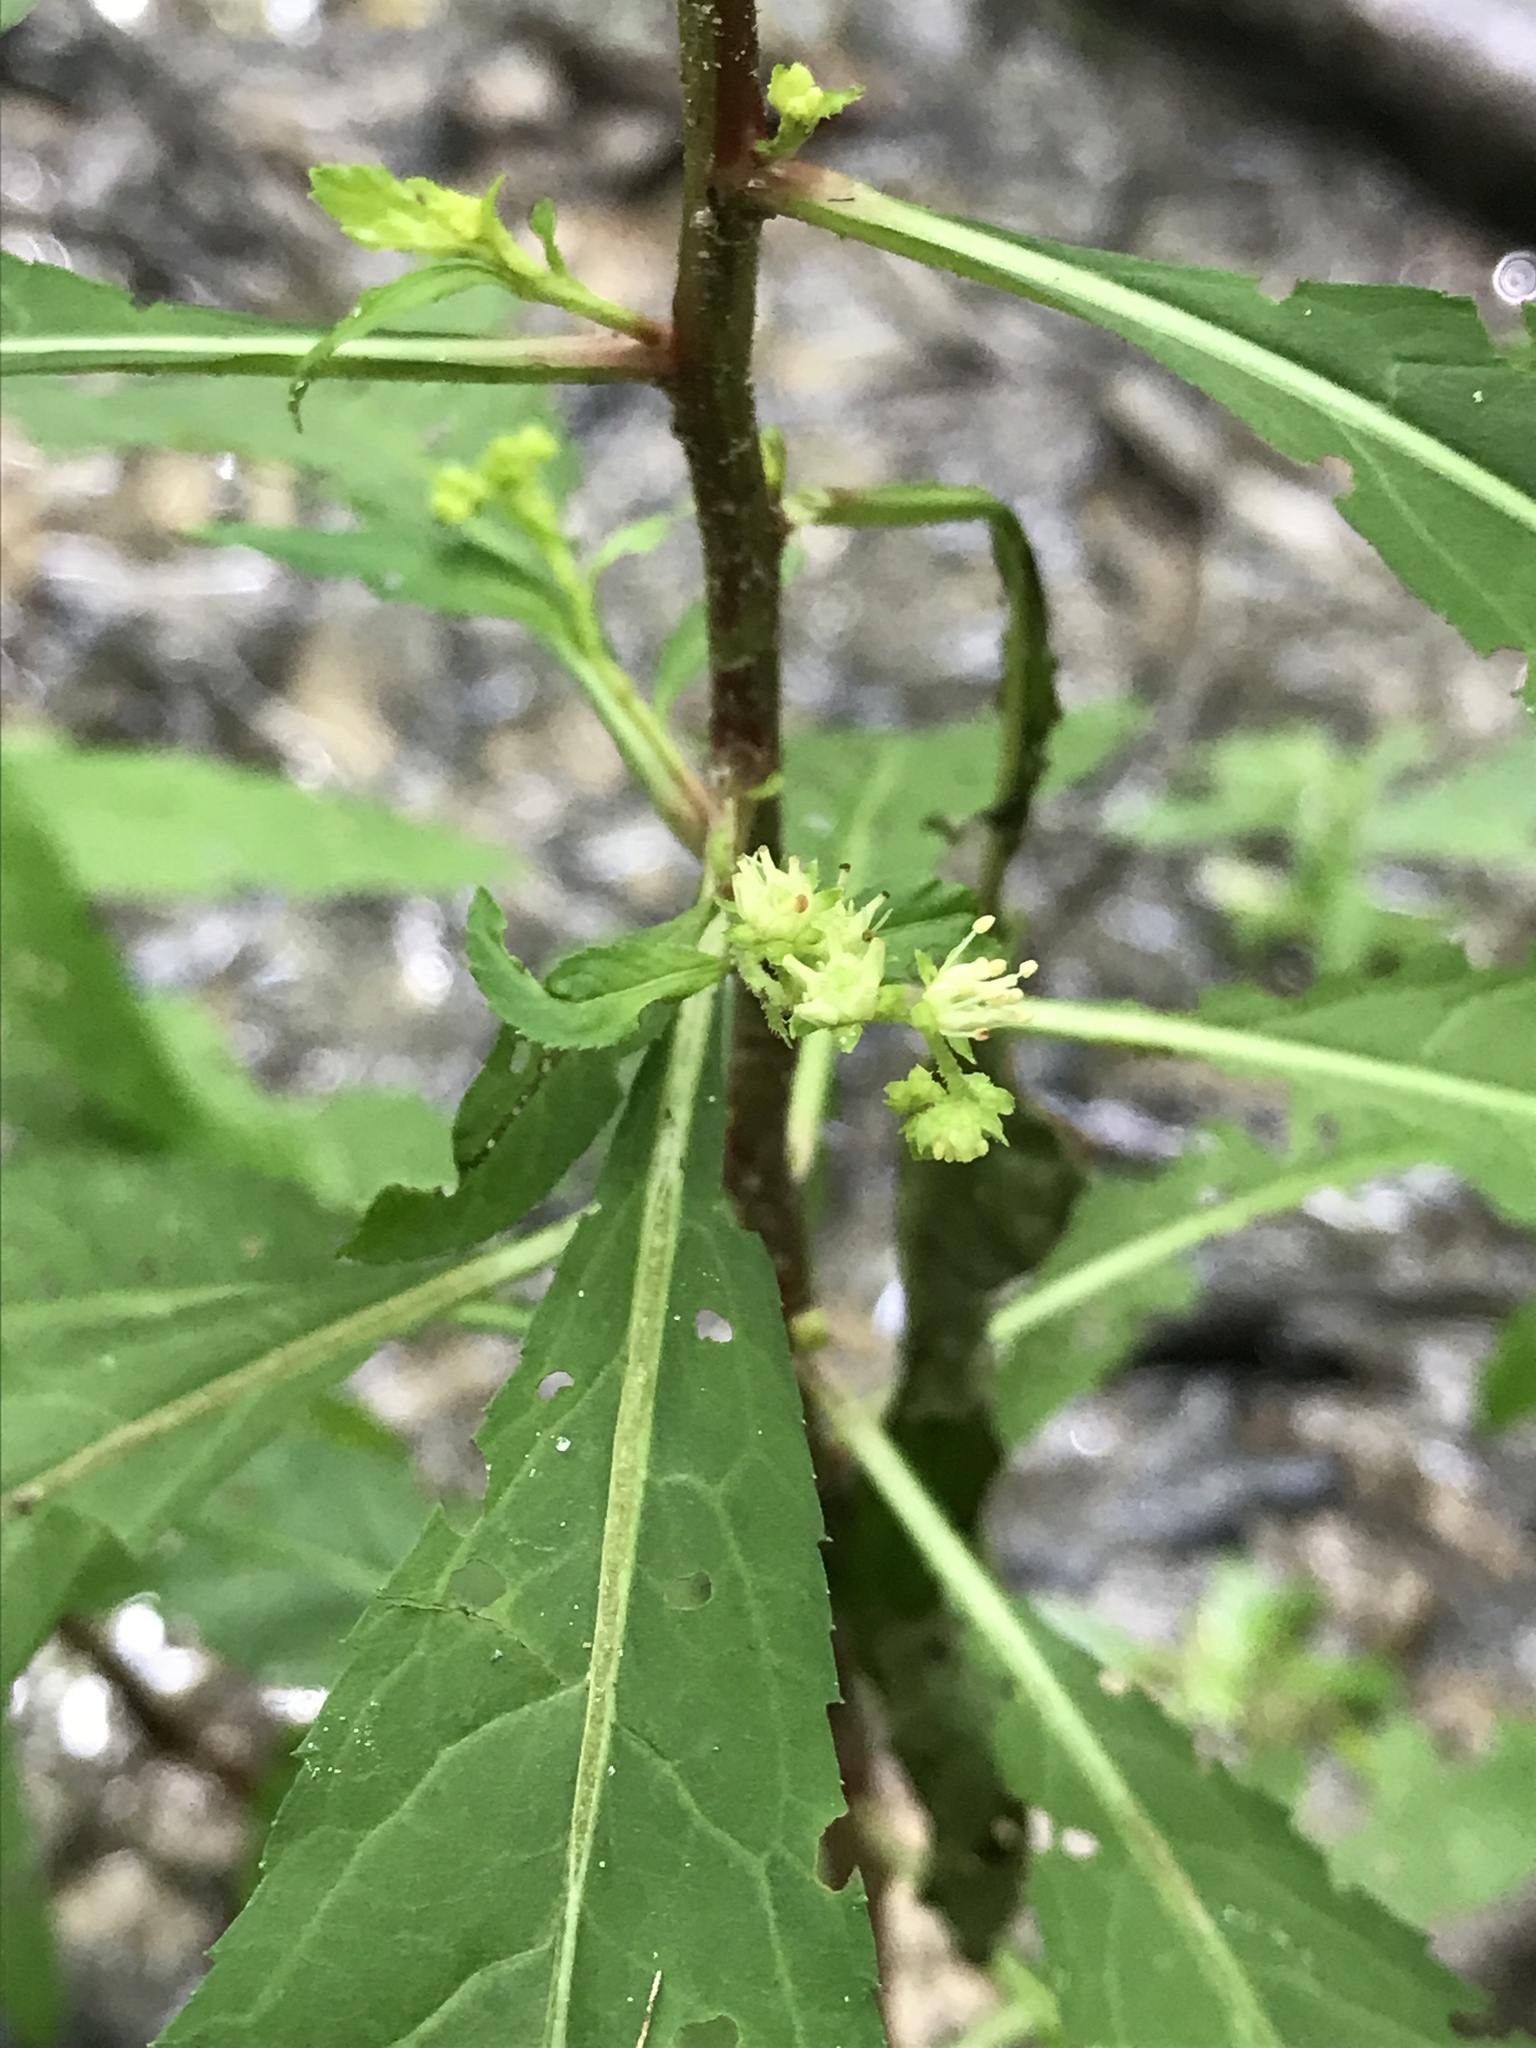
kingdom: Plantae
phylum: Tracheophyta
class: Magnoliopsida
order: Saxifragales
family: Penthoraceae
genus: Penthorum
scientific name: Penthorum sedoides
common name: Ditch stonecrop
